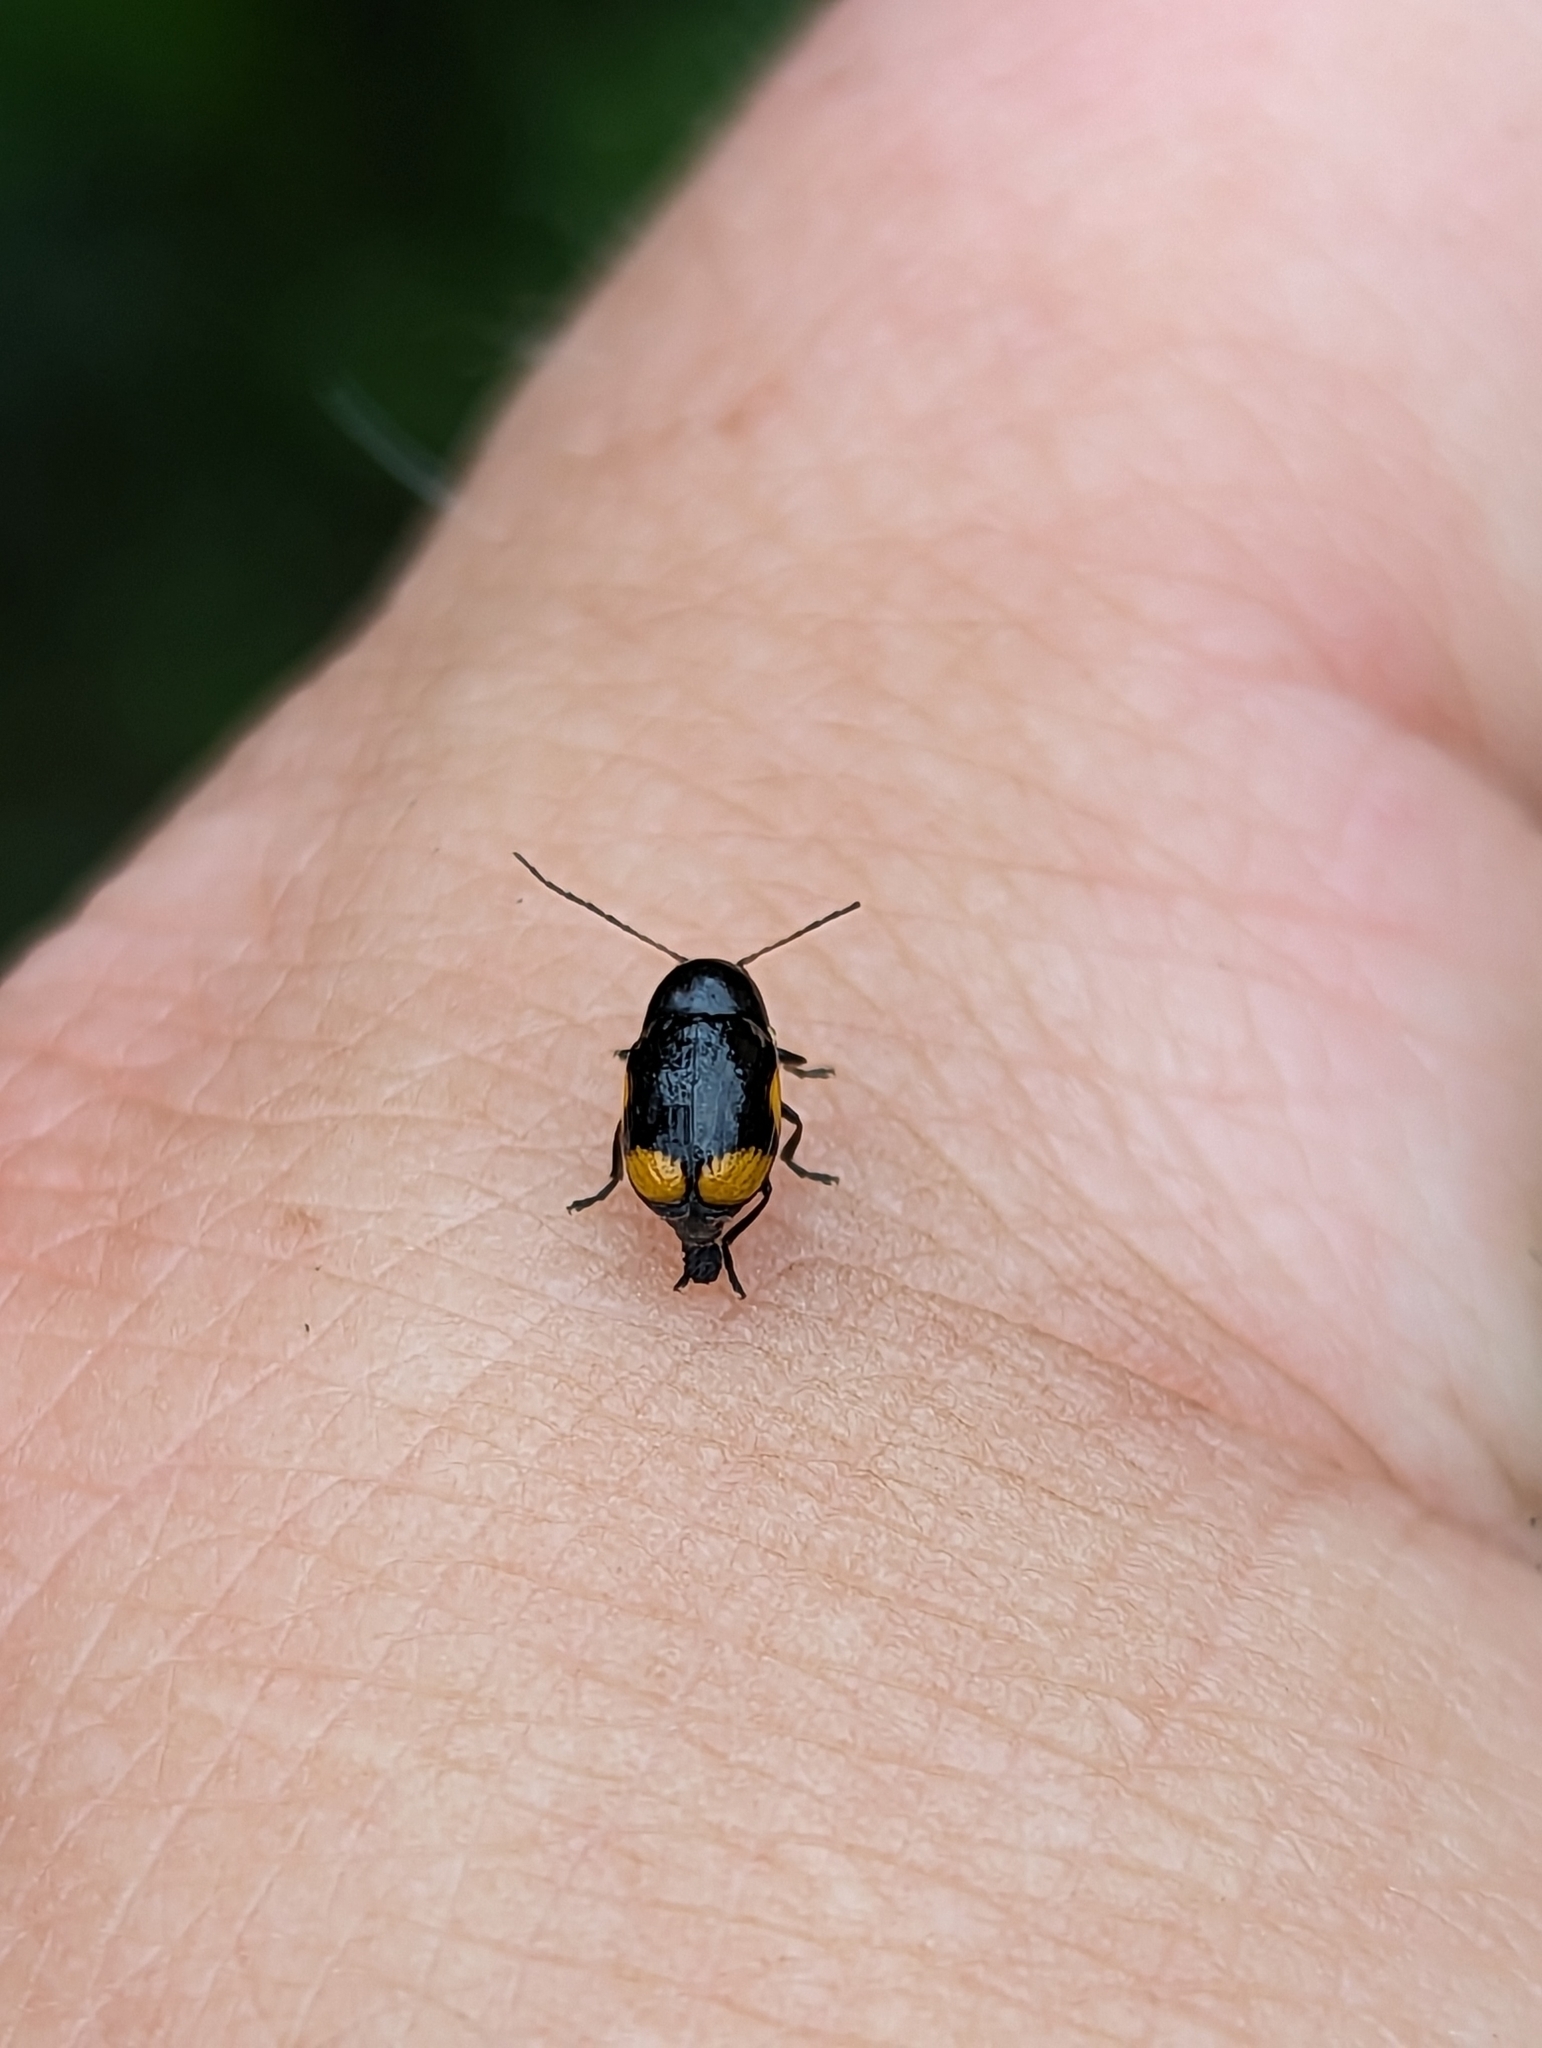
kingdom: Animalia
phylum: Arthropoda
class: Insecta
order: Coleoptera
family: Chrysomelidae
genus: Cryptocephalus
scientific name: Cryptocephalus moraei
